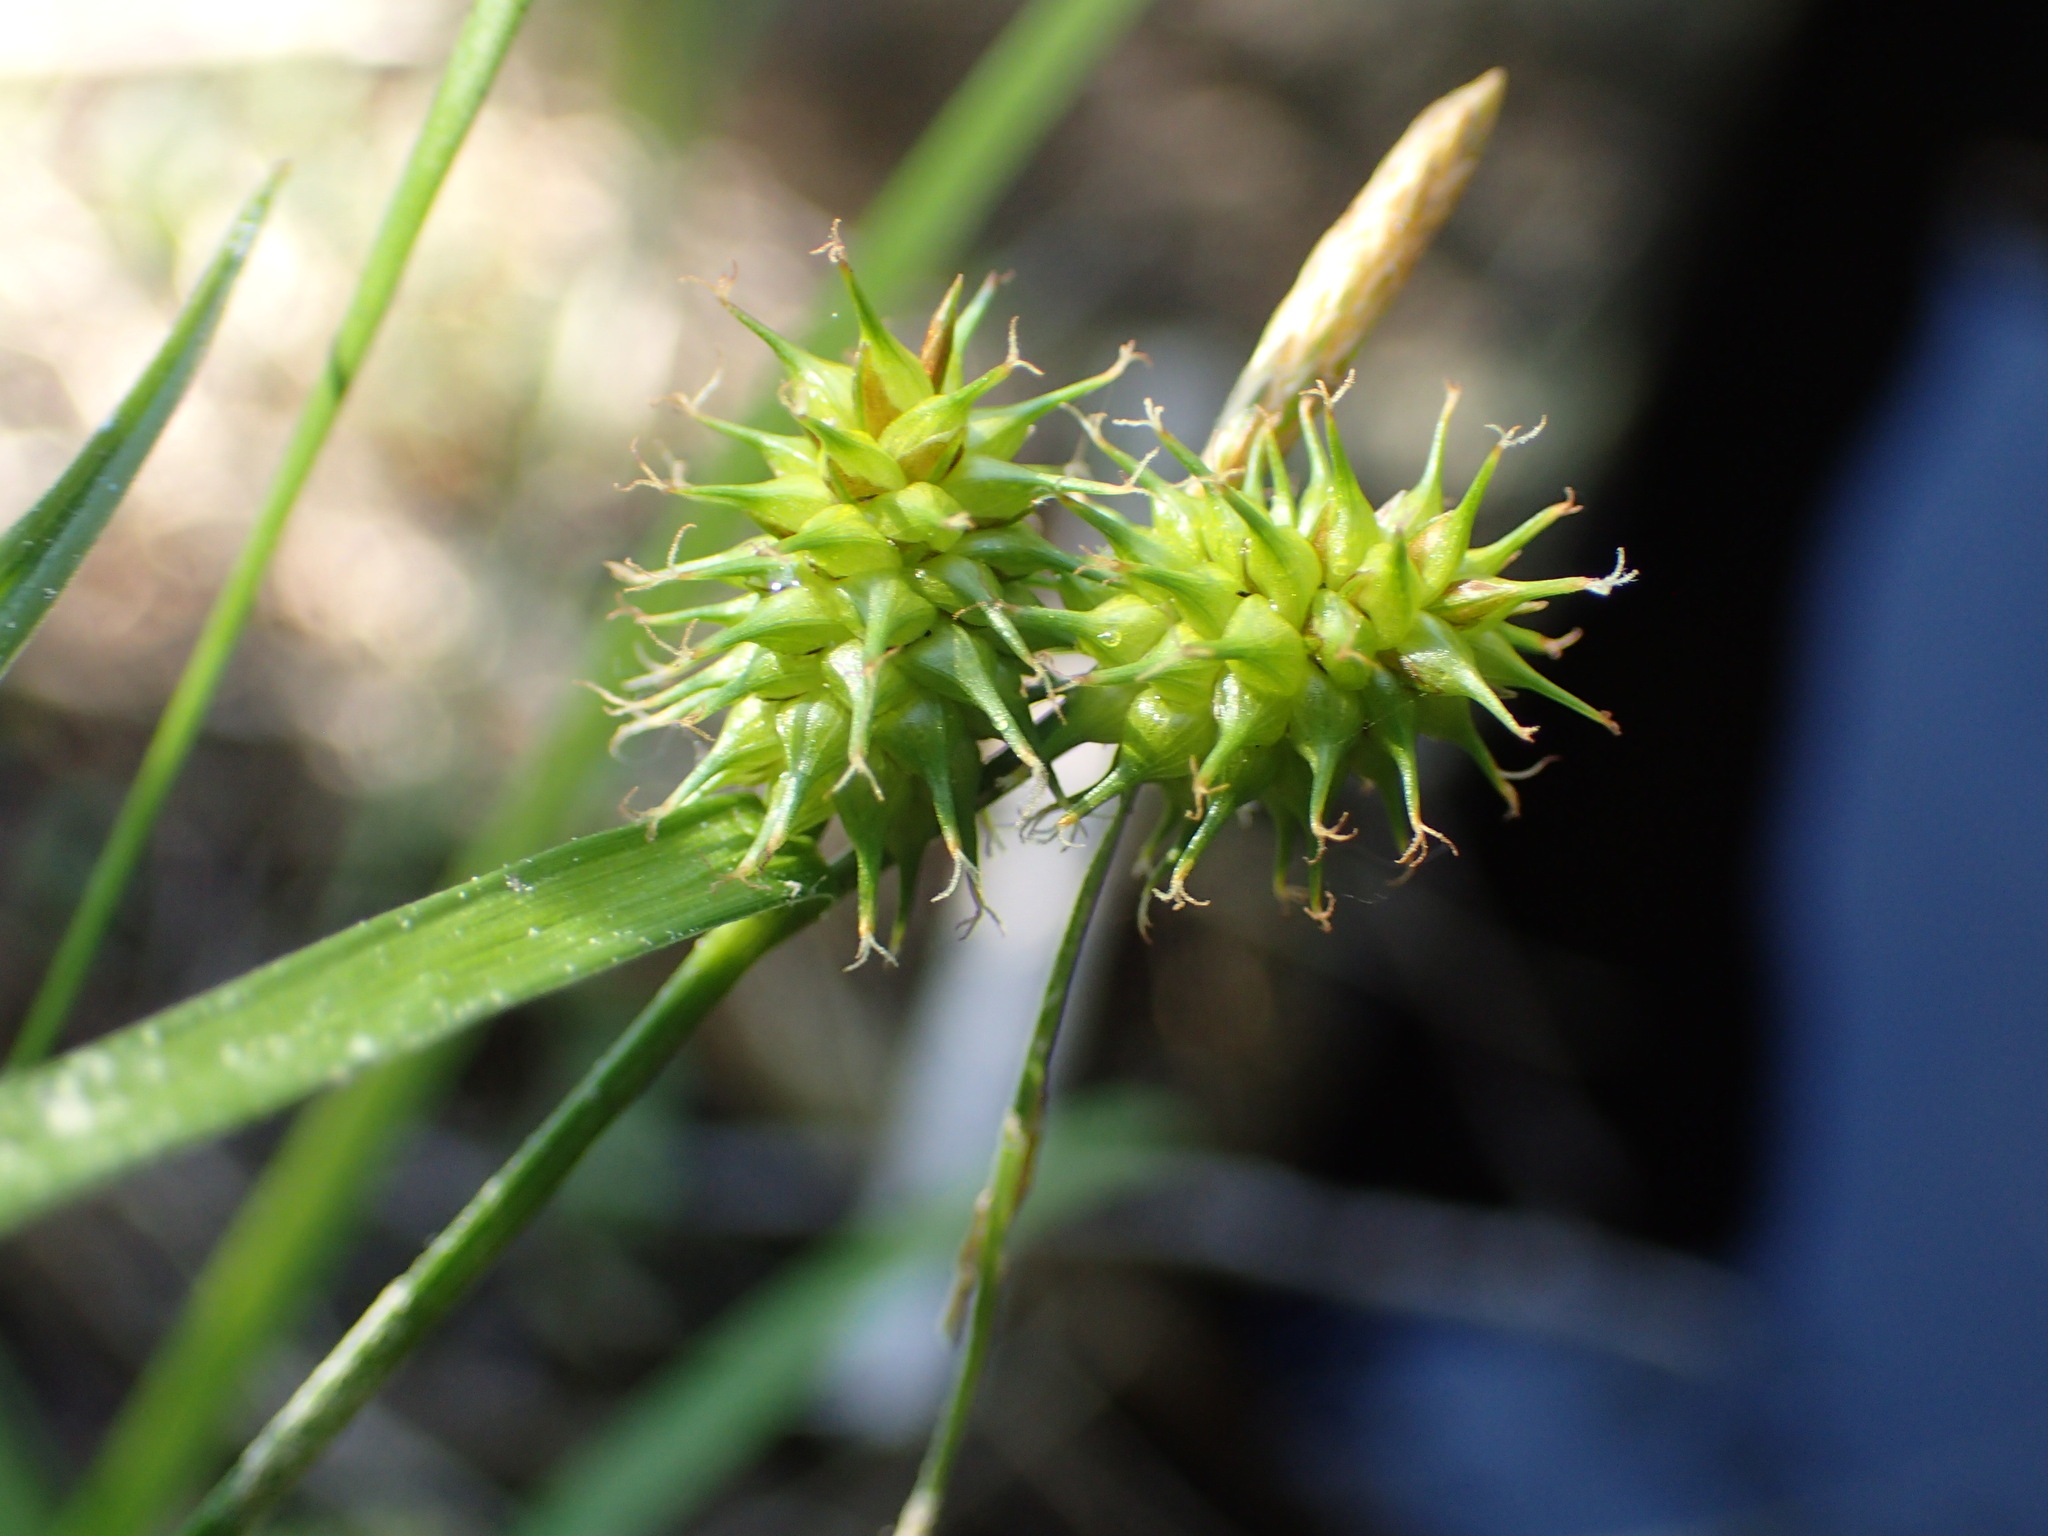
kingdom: Plantae
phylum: Tracheophyta
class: Liliopsida
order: Poales
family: Cyperaceae
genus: Carex
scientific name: Carex flava
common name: Large yellow-sedge
